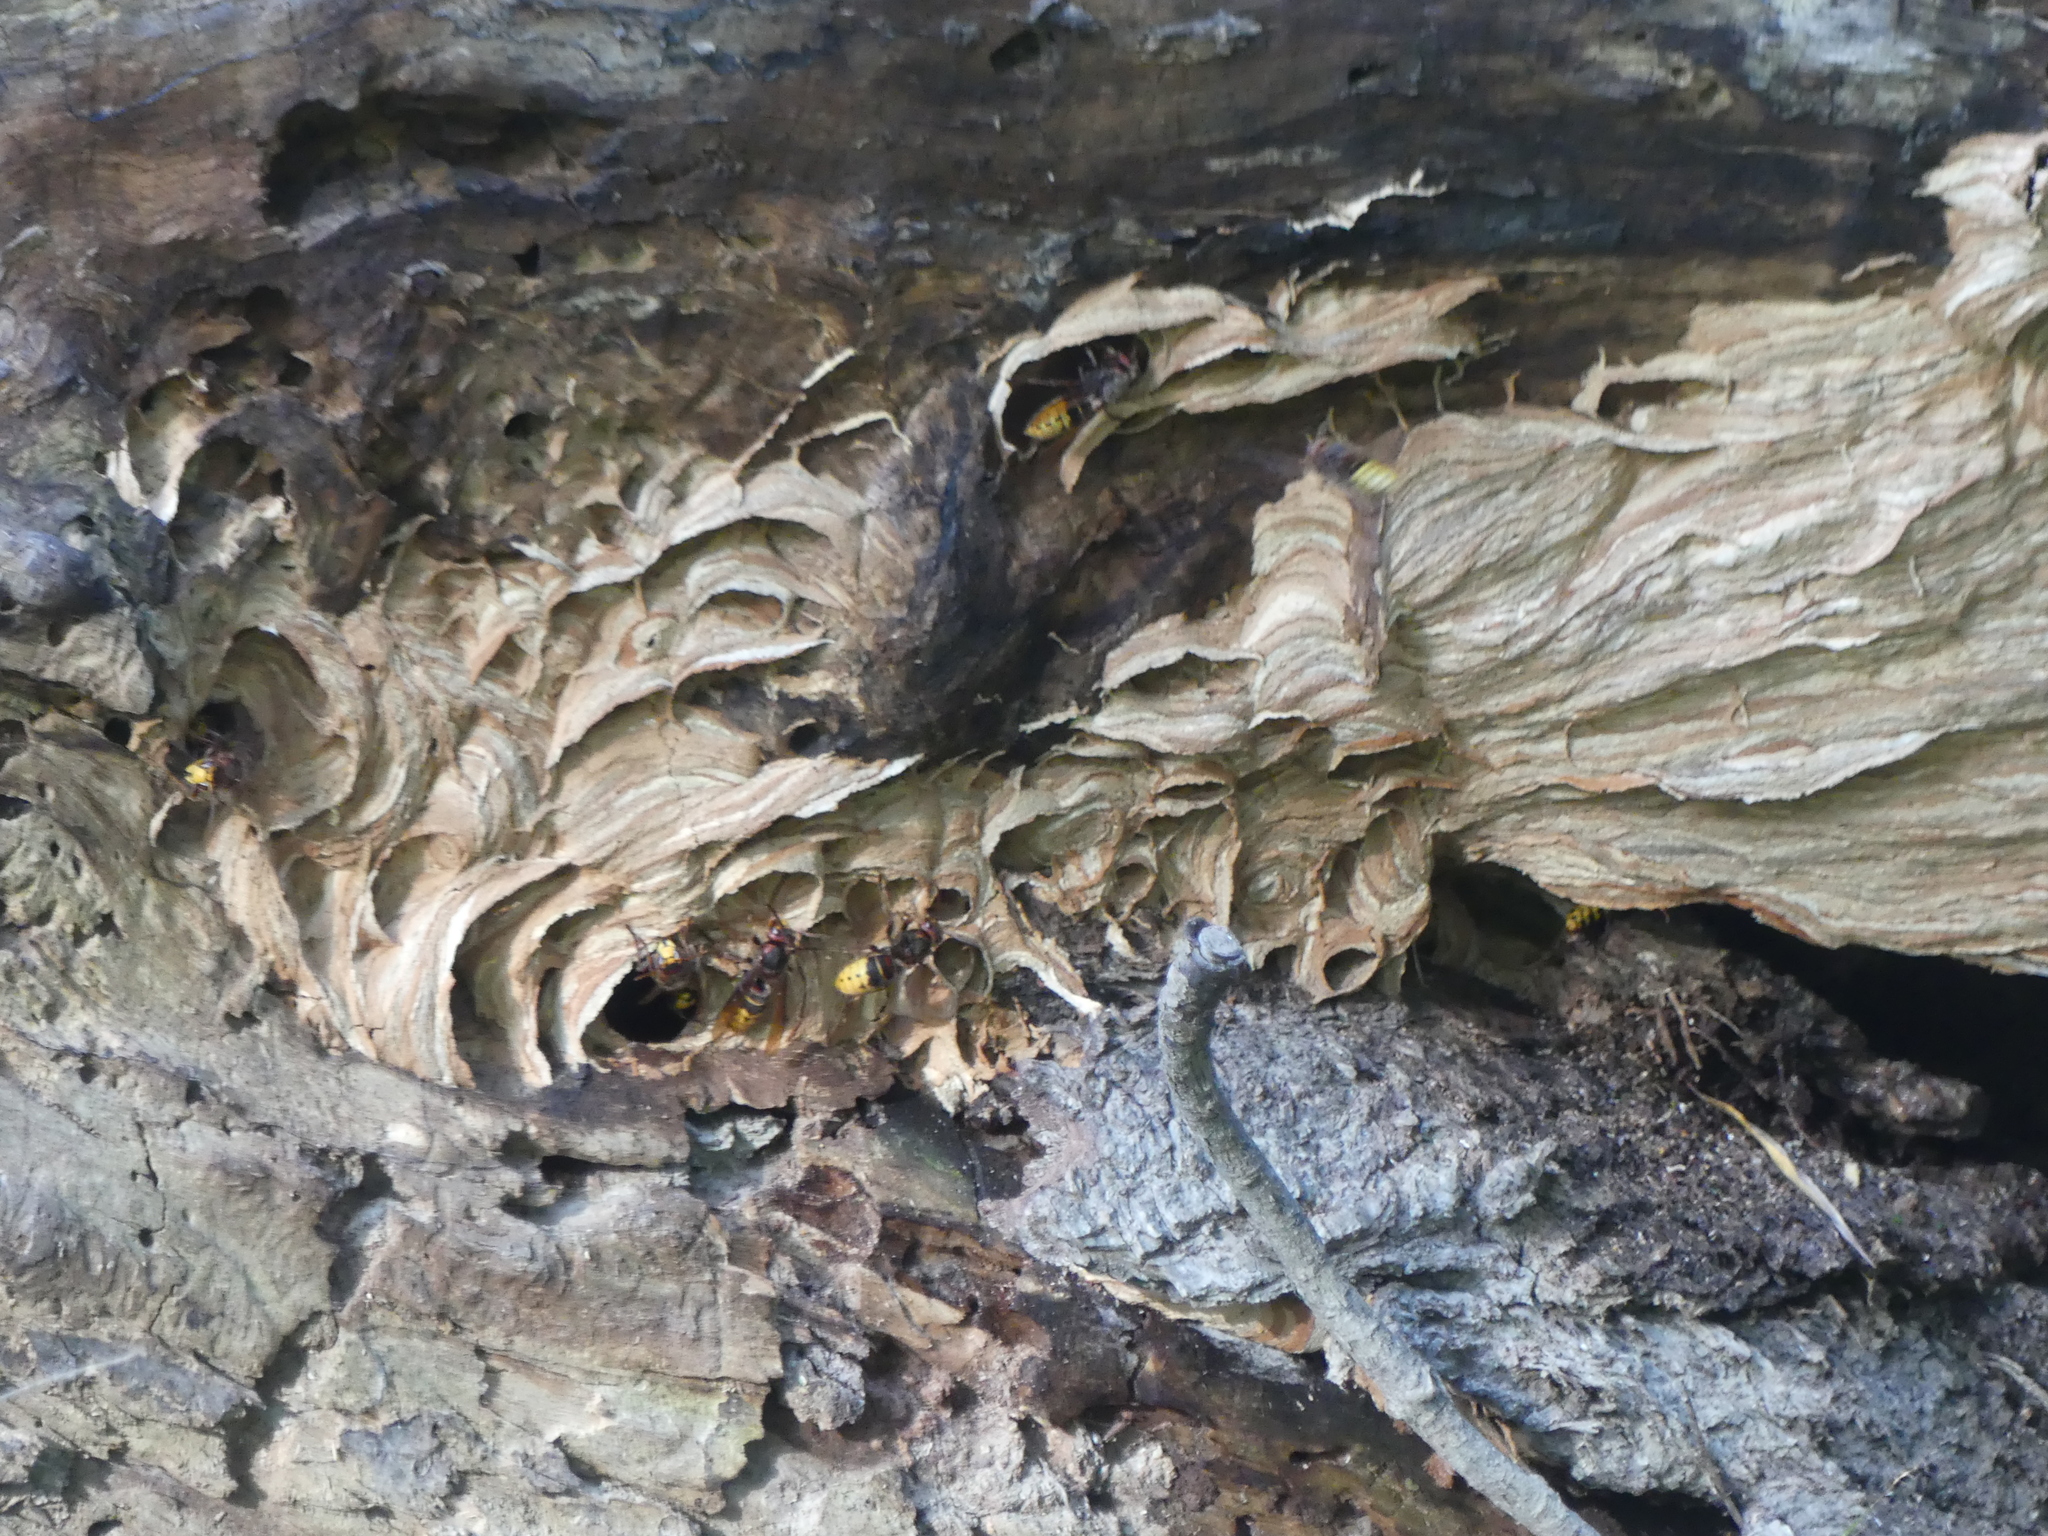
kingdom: Animalia
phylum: Arthropoda
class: Insecta
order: Hymenoptera
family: Vespidae
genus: Vespa
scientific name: Vespa crabro
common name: Hornet
